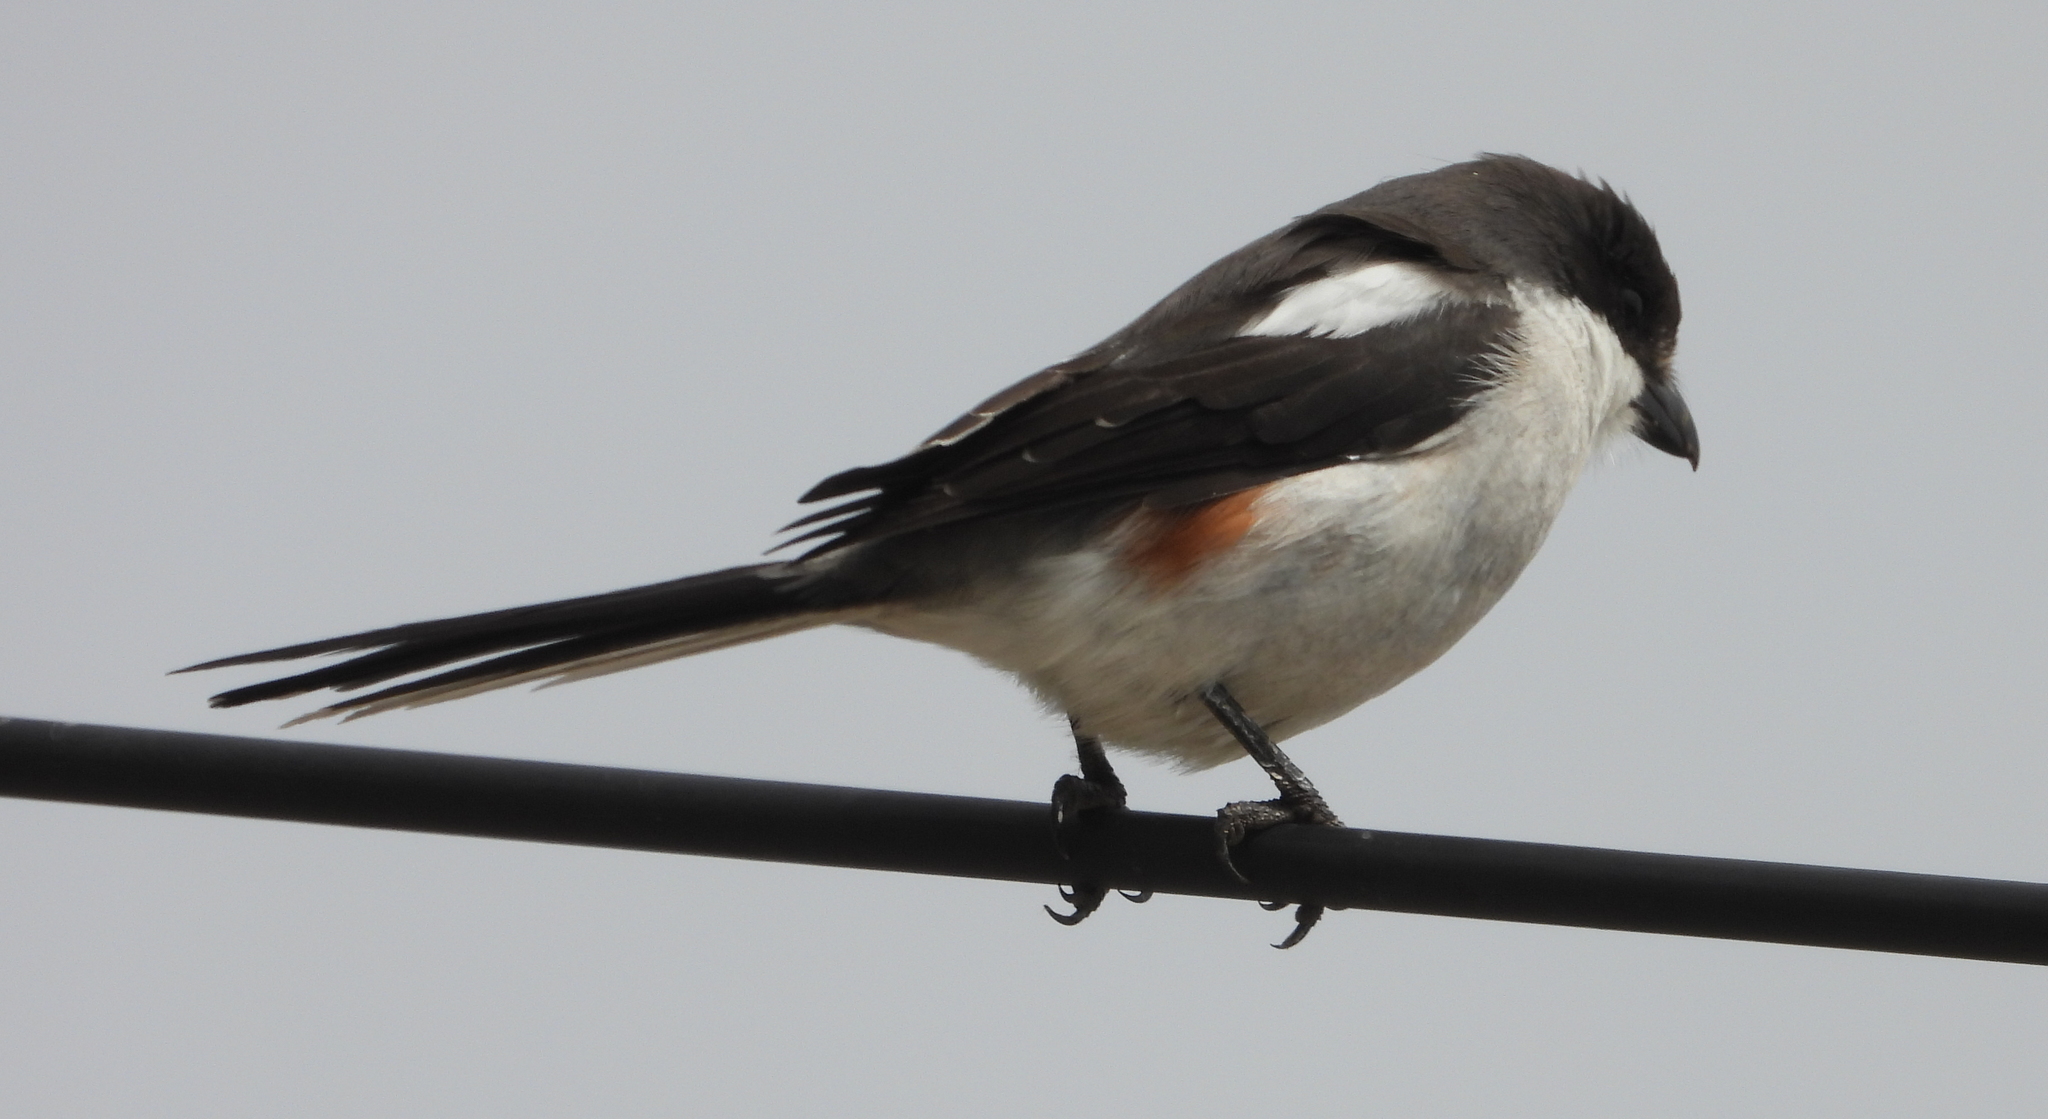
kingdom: Animalia
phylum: Chordata
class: Aves
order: Passeriformes
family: Laniidae
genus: Lanius
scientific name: Lanius collaris
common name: Southern fiscal
